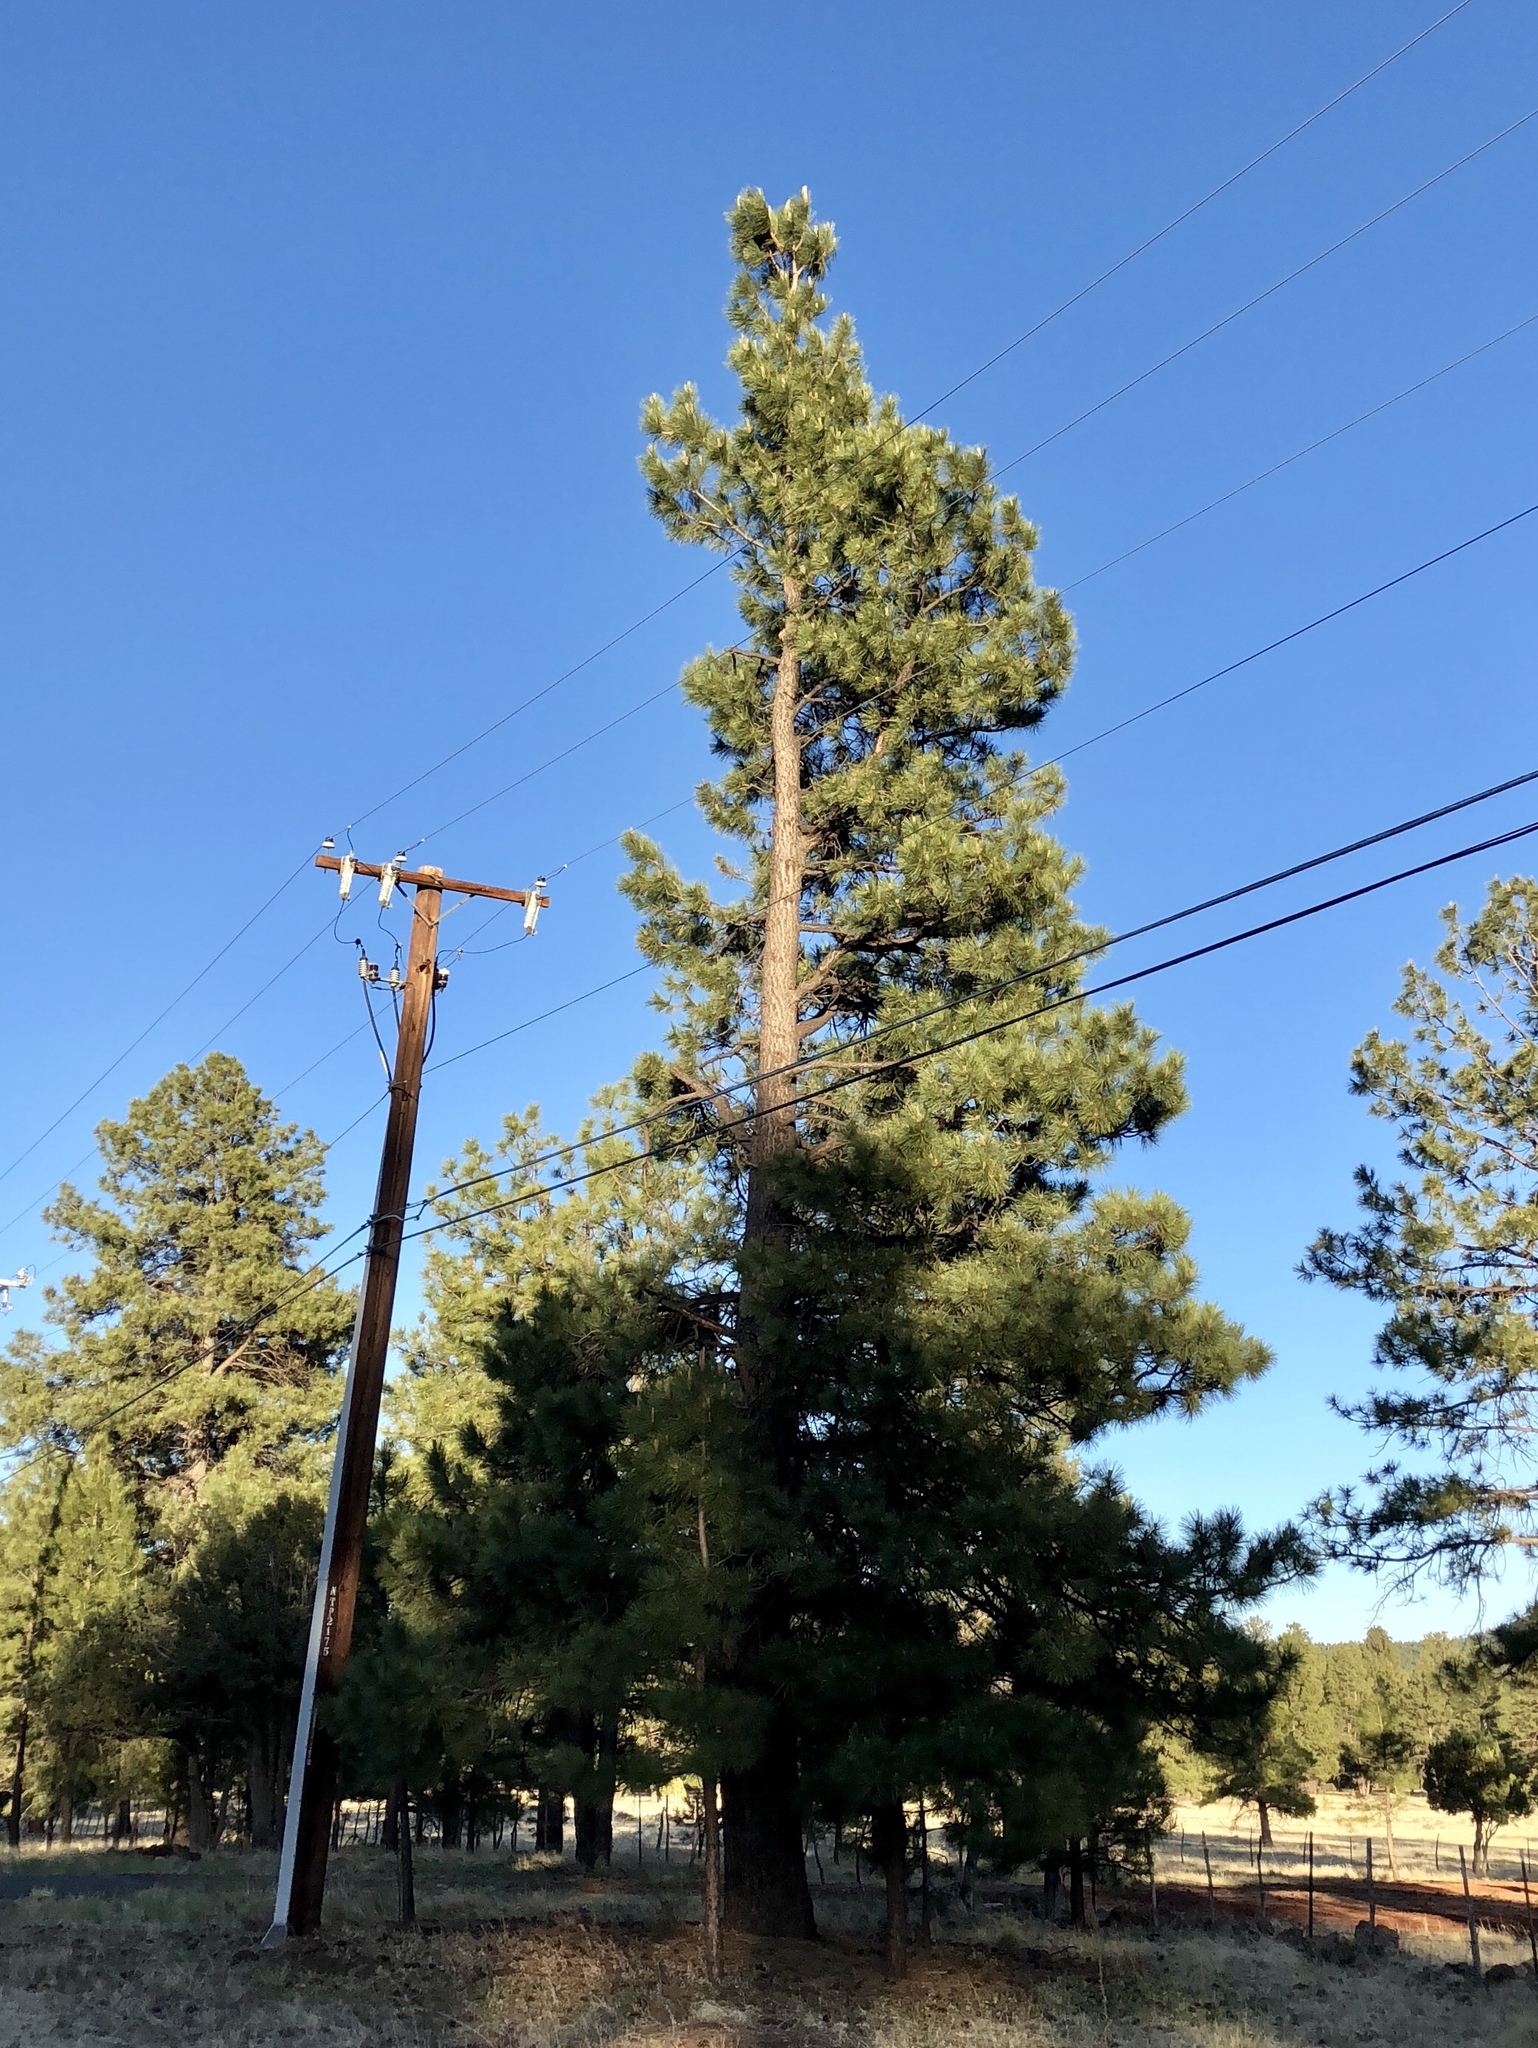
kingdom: Plantae
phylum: Tracheophyta
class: Pinopsida
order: Pinales
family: Pinaceae
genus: Pinus
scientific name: Pinus ponderosa
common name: Western yellow-pine
